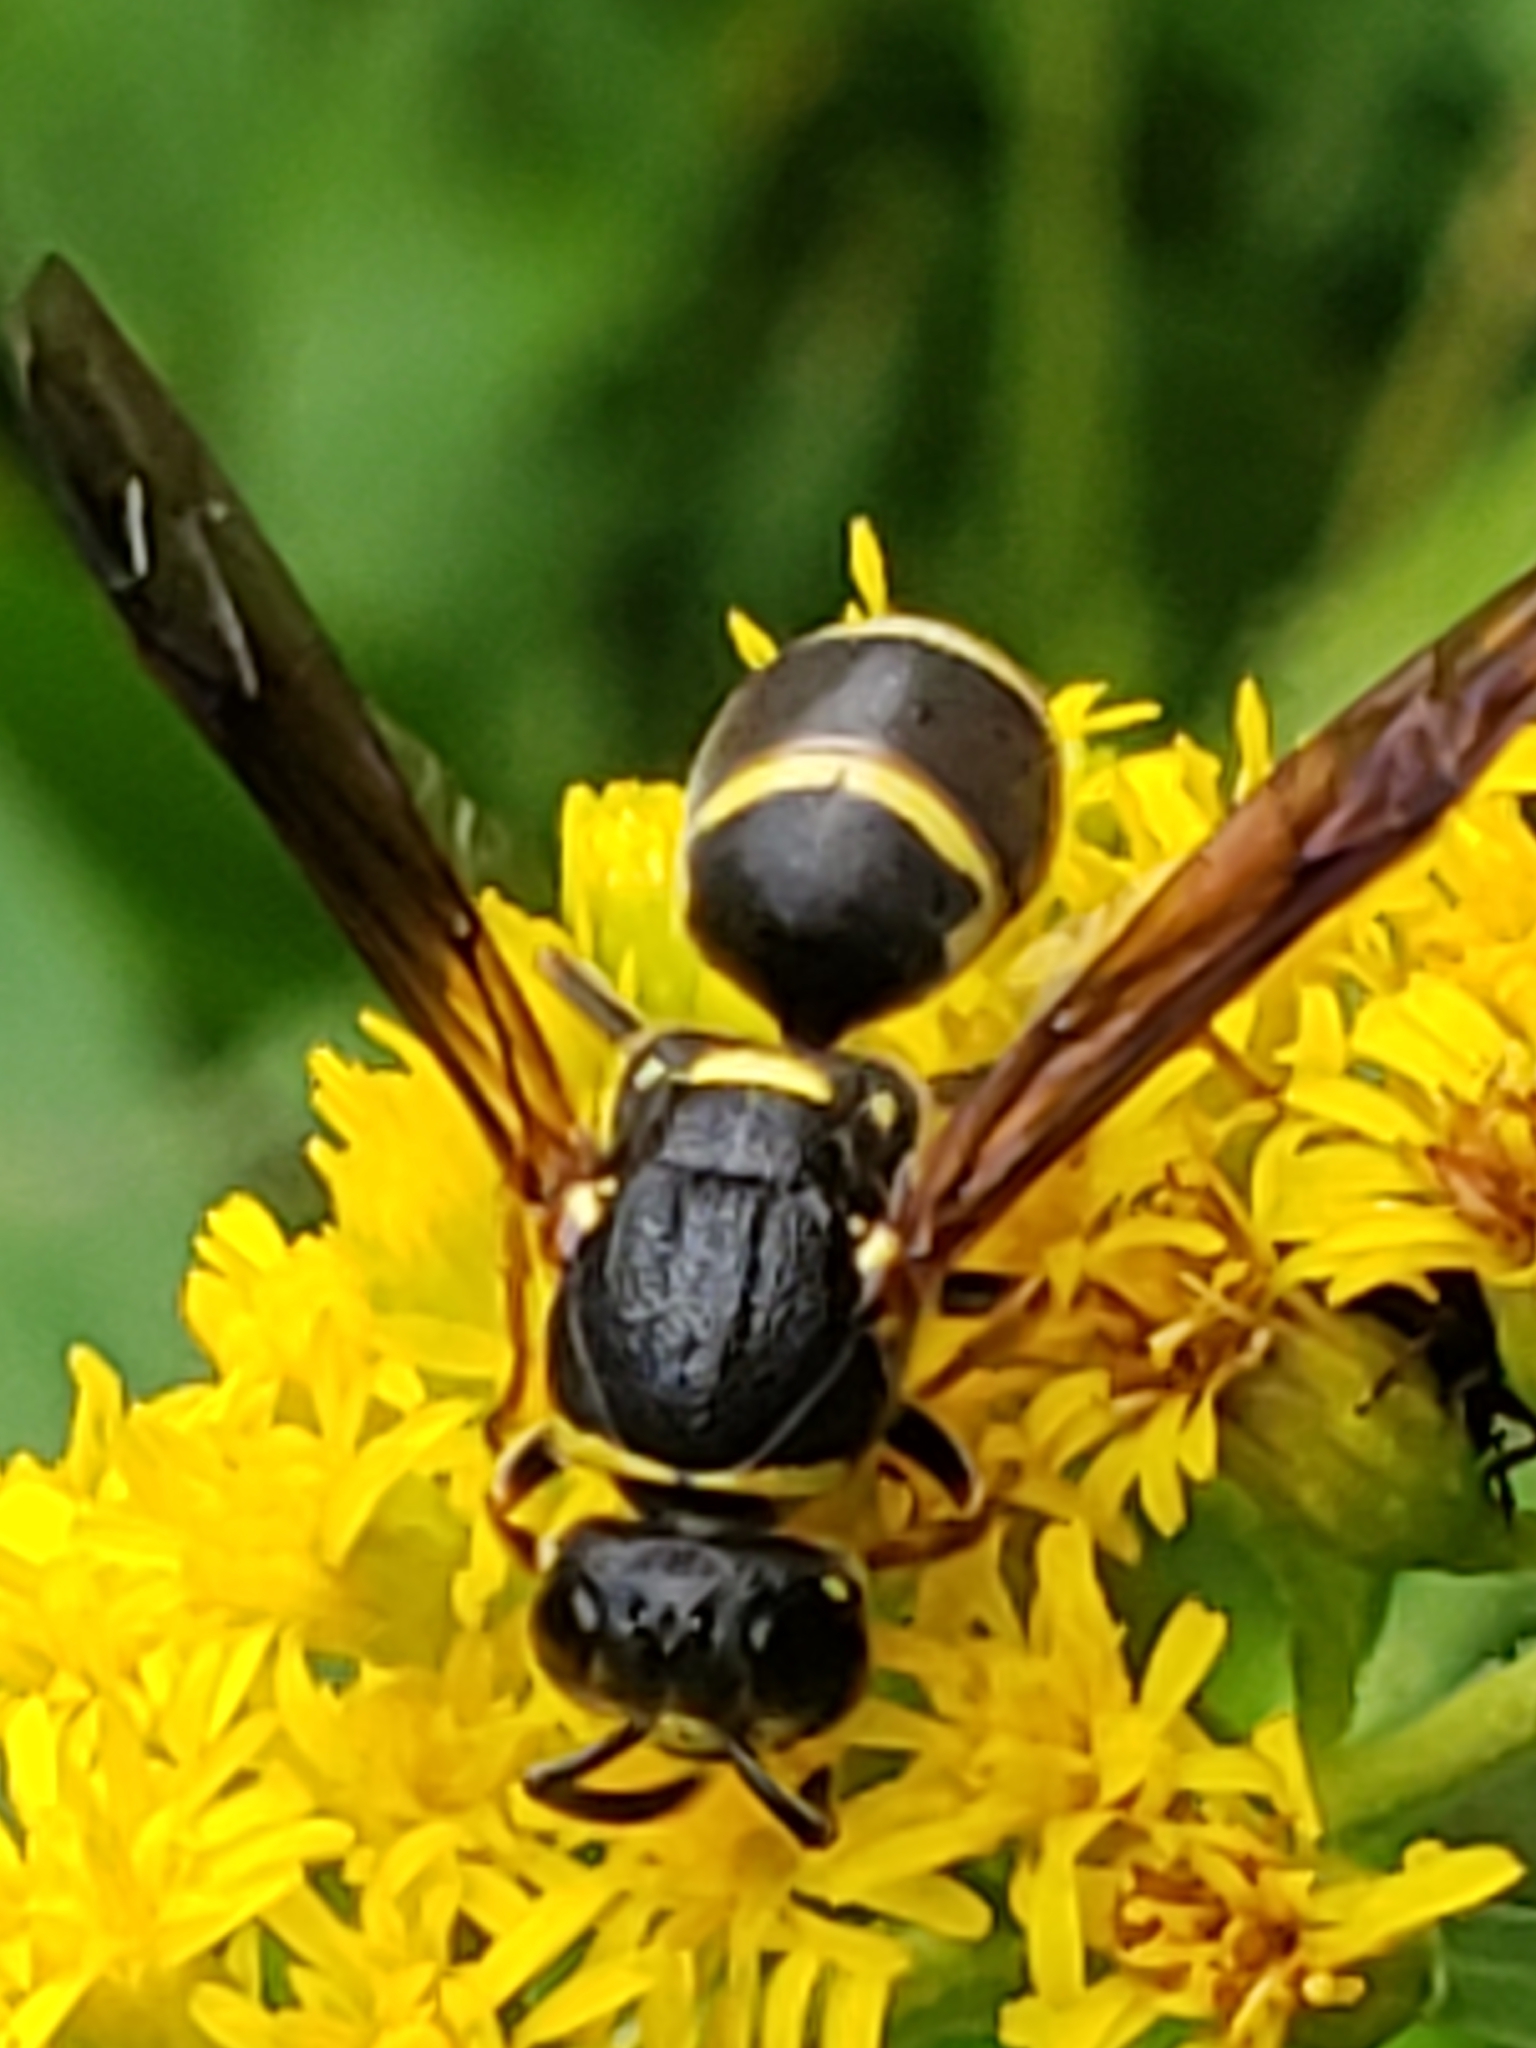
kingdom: Animalia
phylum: Arthropoda
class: Insecta
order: Hymenoptera
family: Eumenidae
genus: Euodynerus
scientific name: Euodynerus foraminatus
